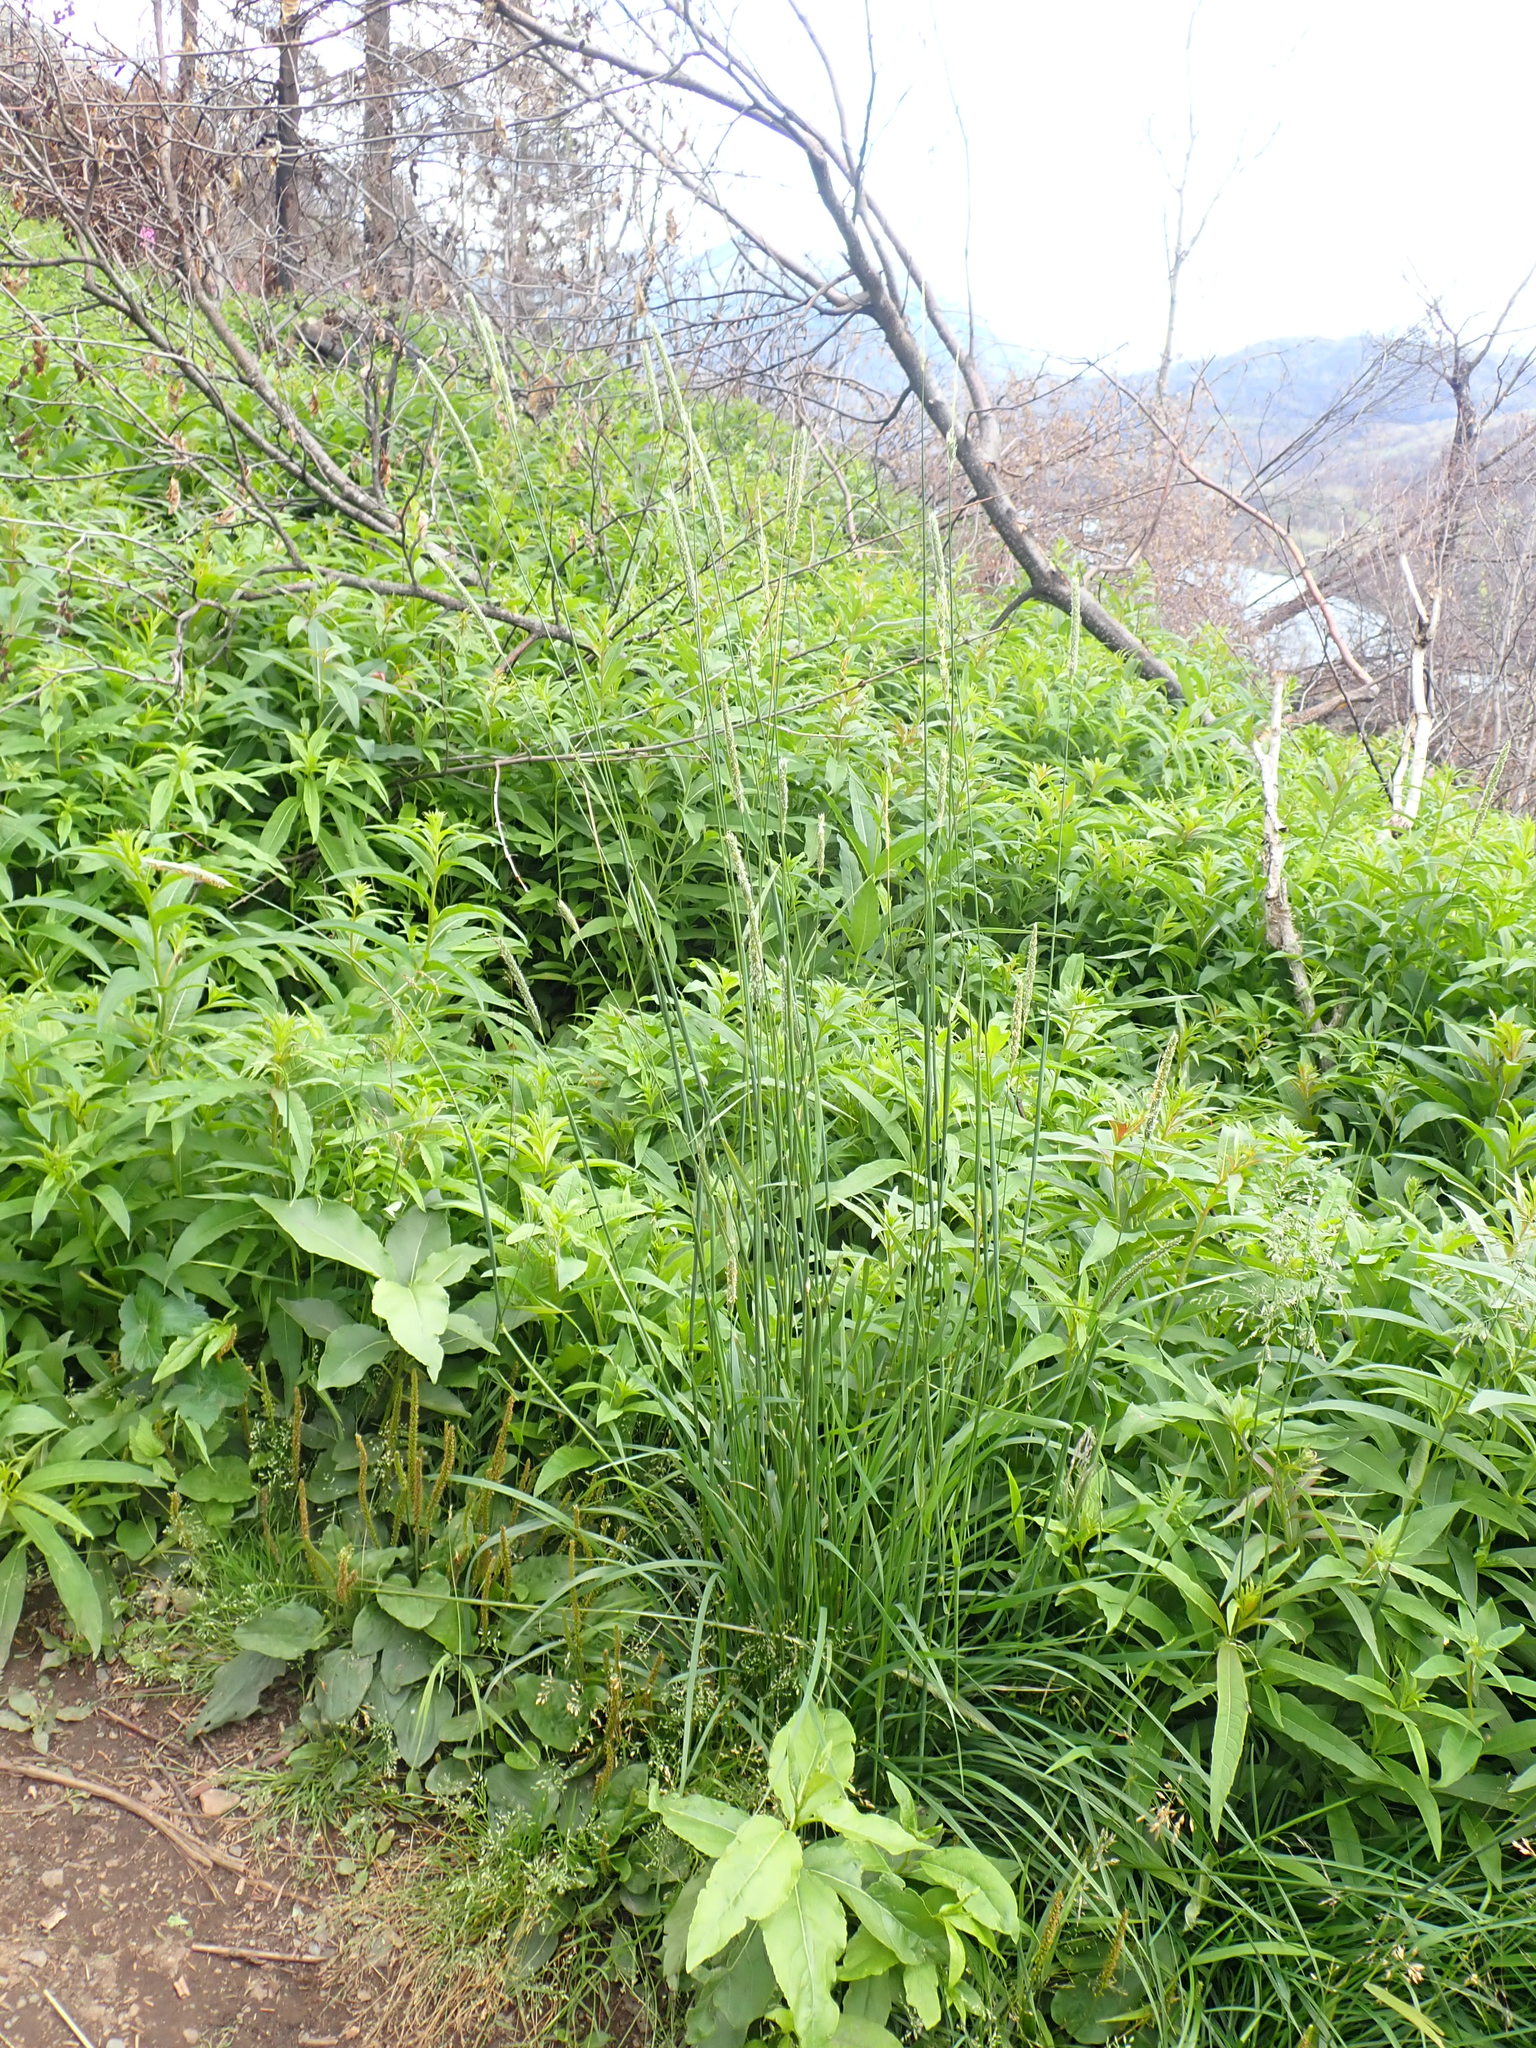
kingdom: Plantae
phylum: Tracheophyta
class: Liliopsida
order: Poales
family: Poaceae
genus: Alopecurus
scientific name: Alopecurus pratensis
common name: Meadow foxtail
